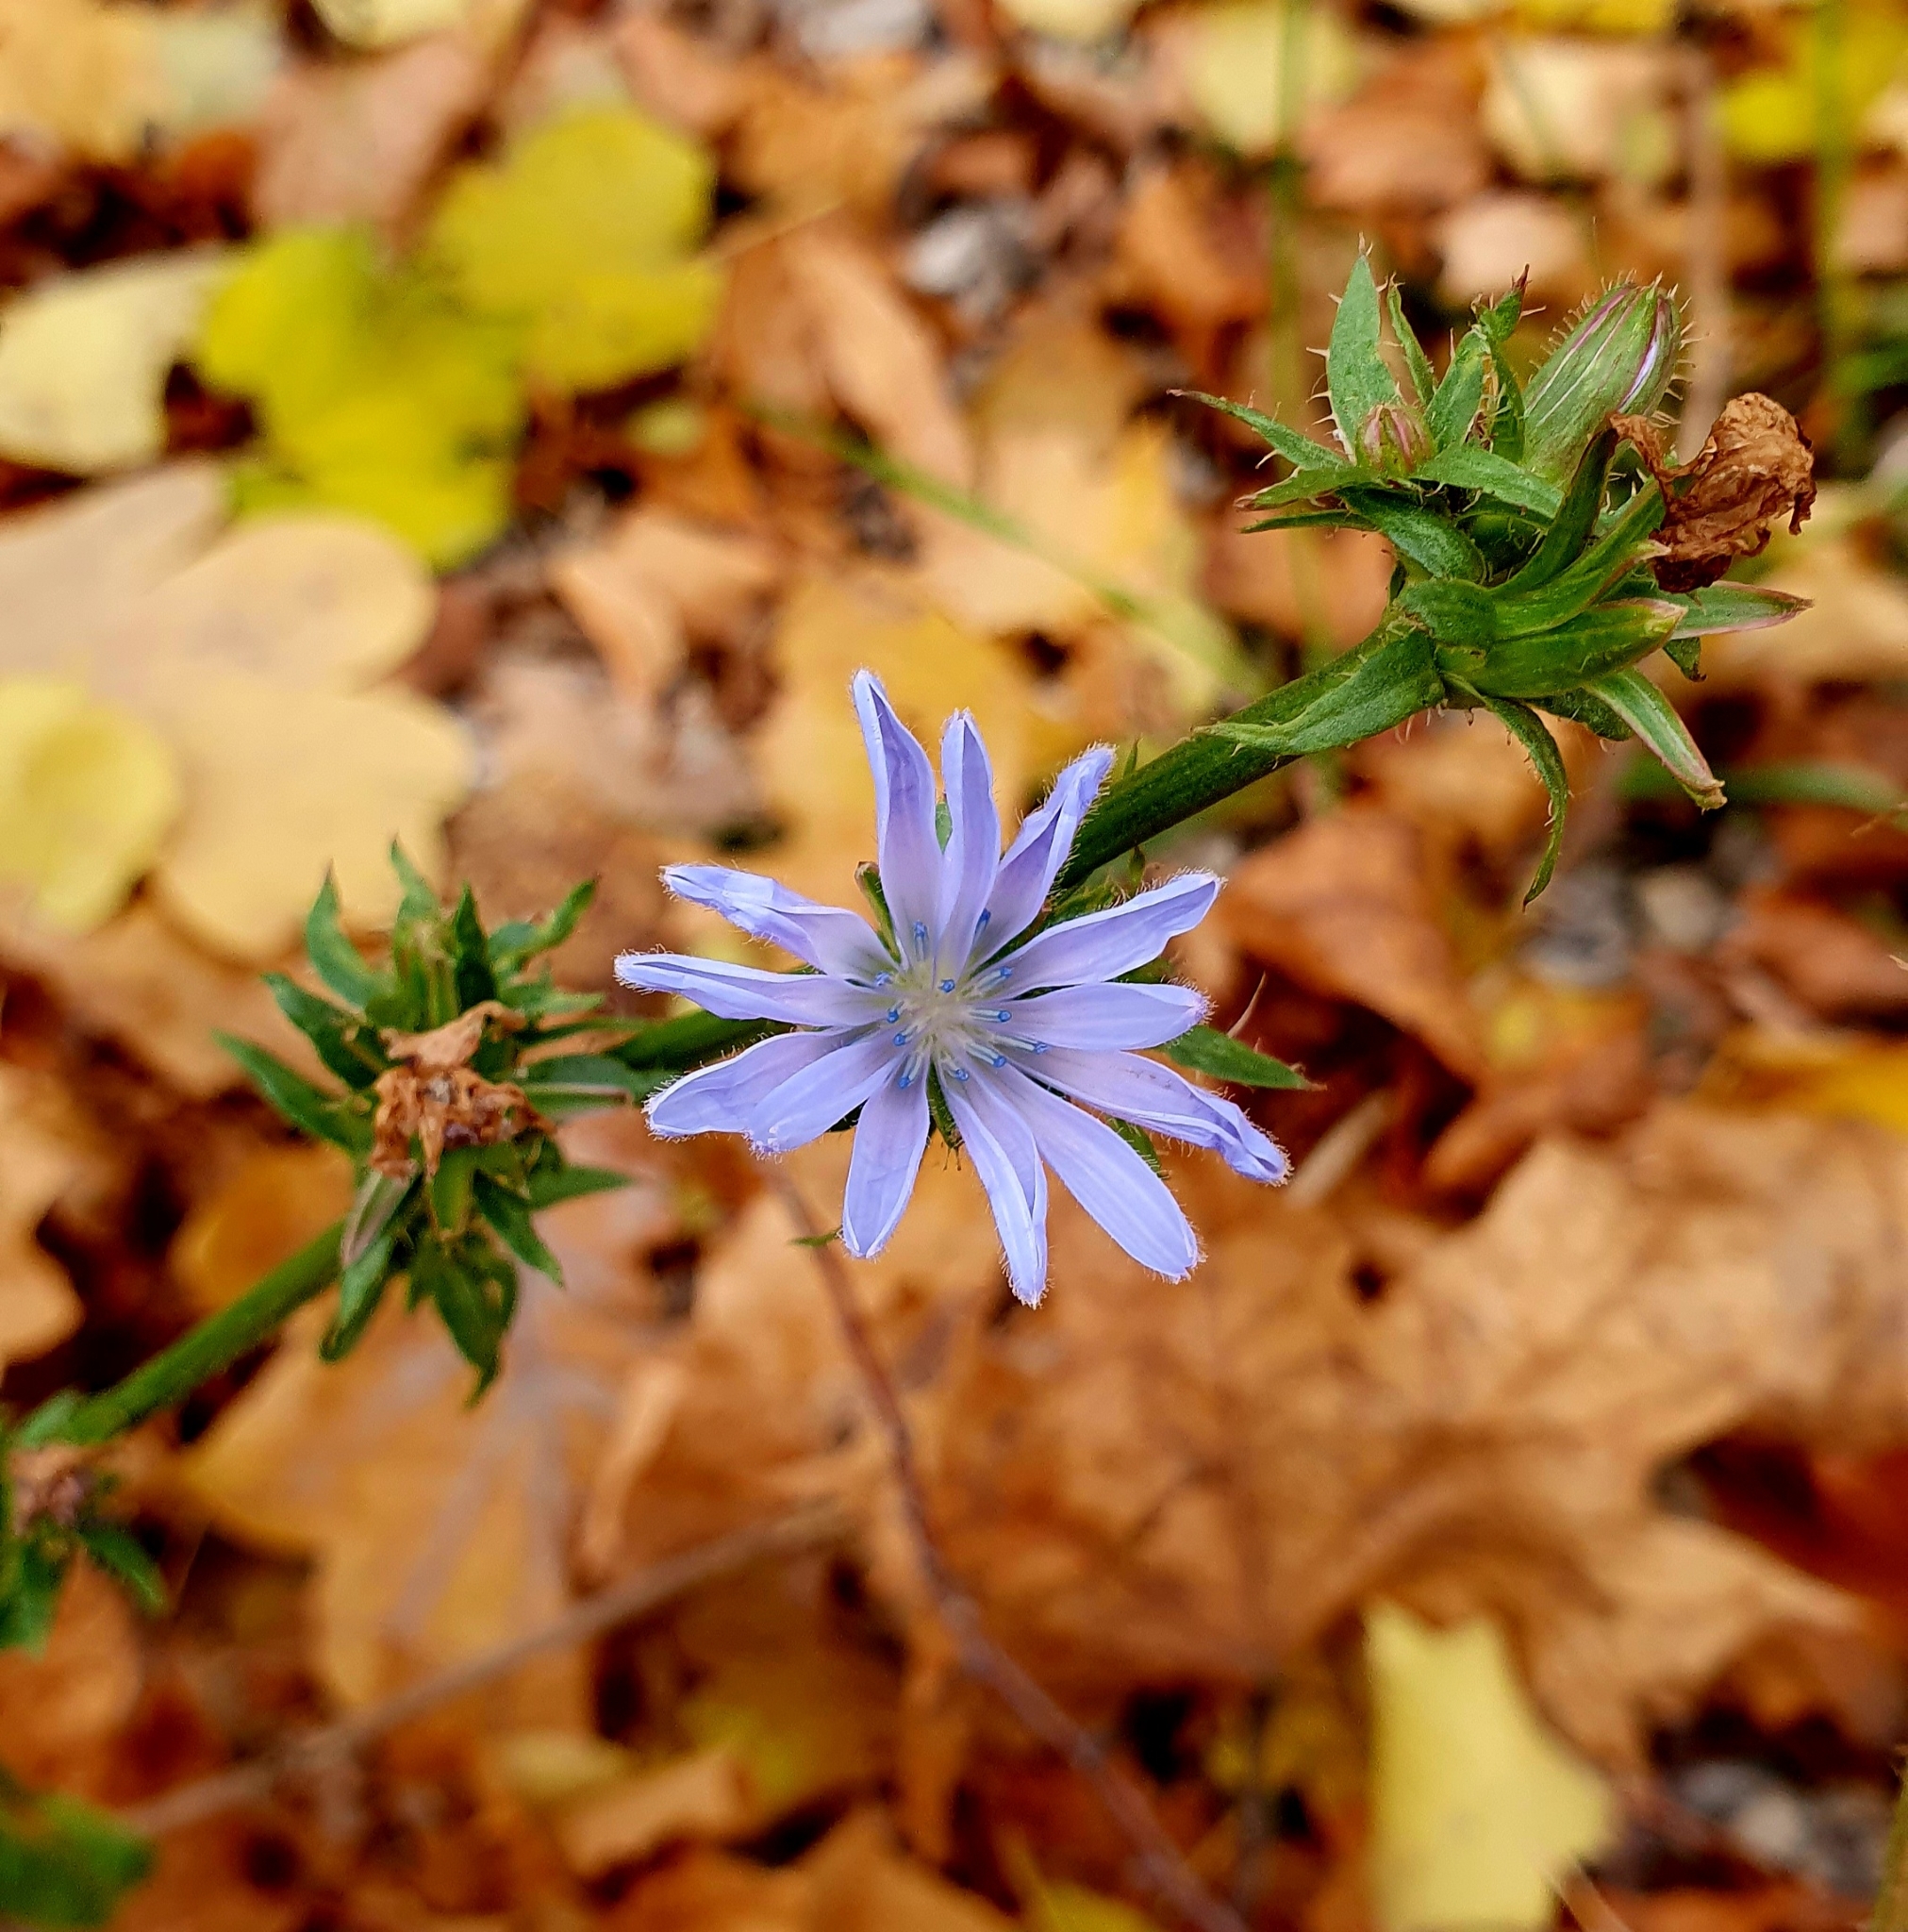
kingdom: Plantae
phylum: Tracheophyta
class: Magnoliopsida
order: Asterales
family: Asteraceae
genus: Cichorium
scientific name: Cichorium intybus
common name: Chicory
